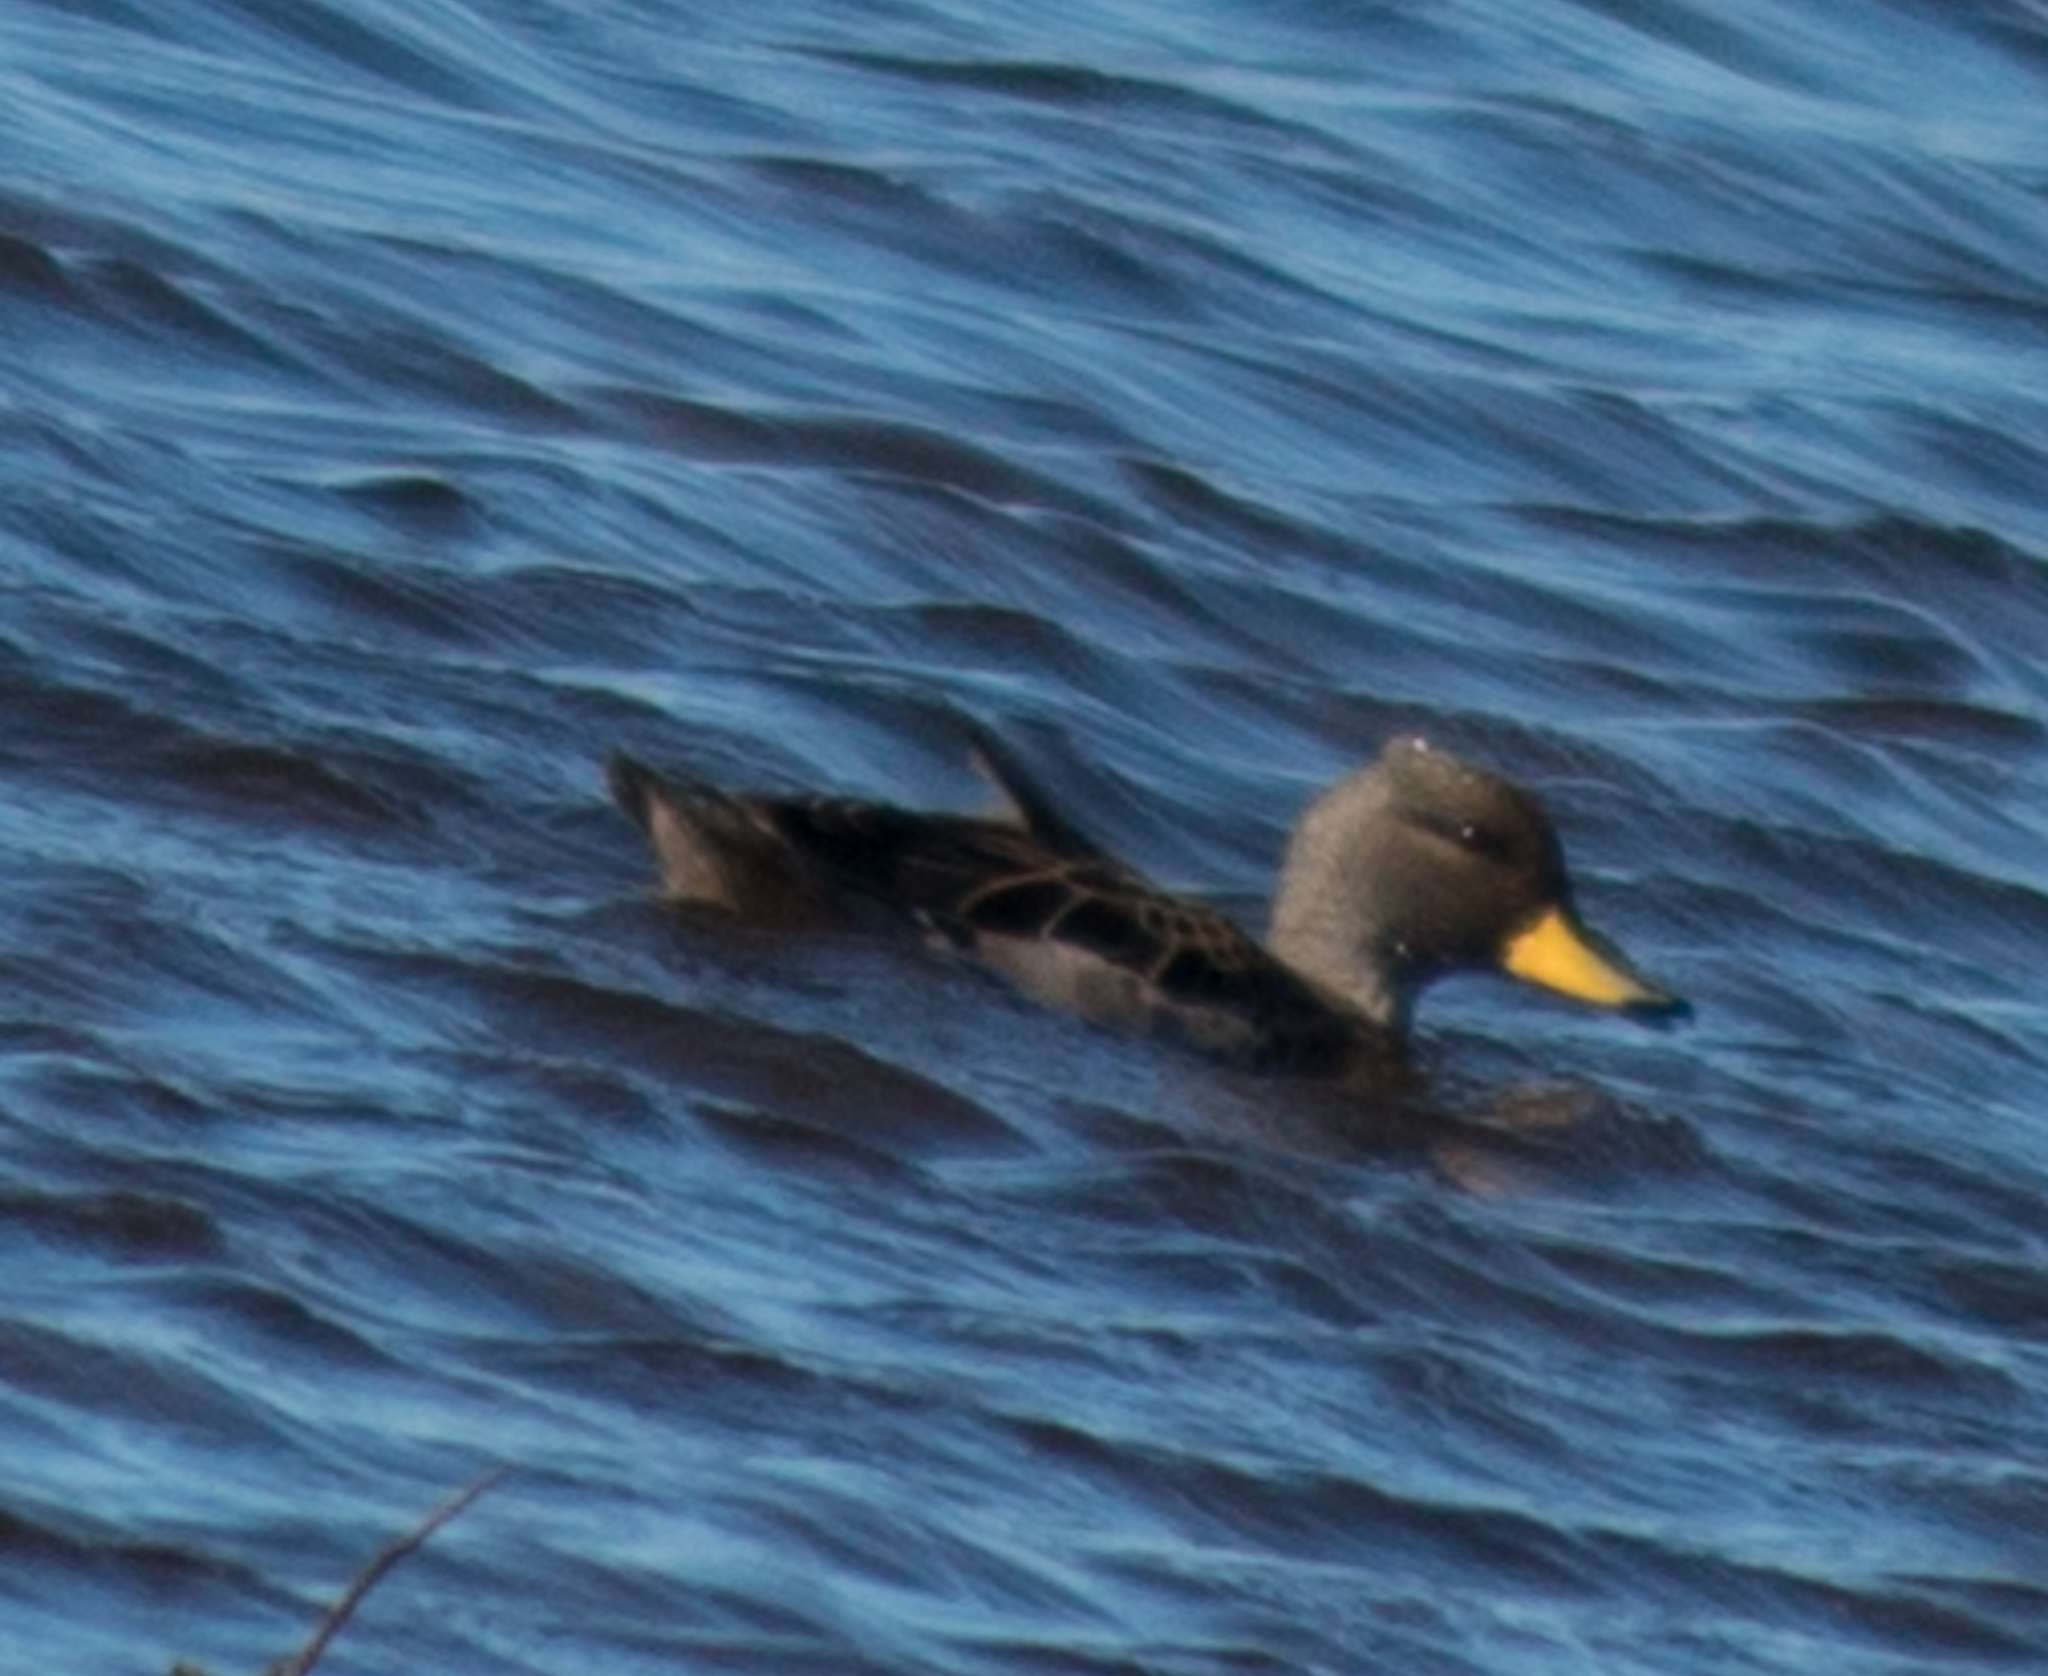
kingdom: Animalia
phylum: Chordata
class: Aves
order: Anseriformes
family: Anatidae
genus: Anas
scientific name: Anas flavirostris
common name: Yellow-billed teal
